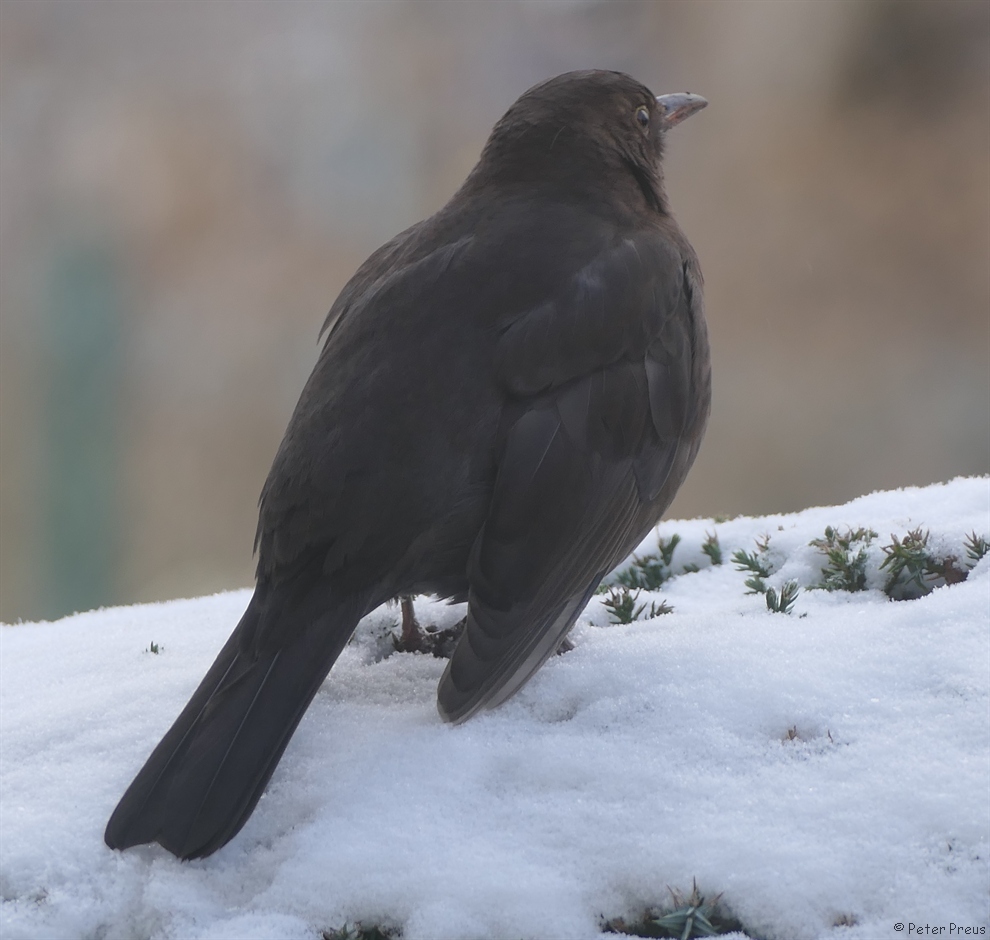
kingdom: Animalia
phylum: Chordata
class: Aves
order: Passeriformes
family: Turdidae
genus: Turdus
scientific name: Turdus merula
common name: Common blackbird
